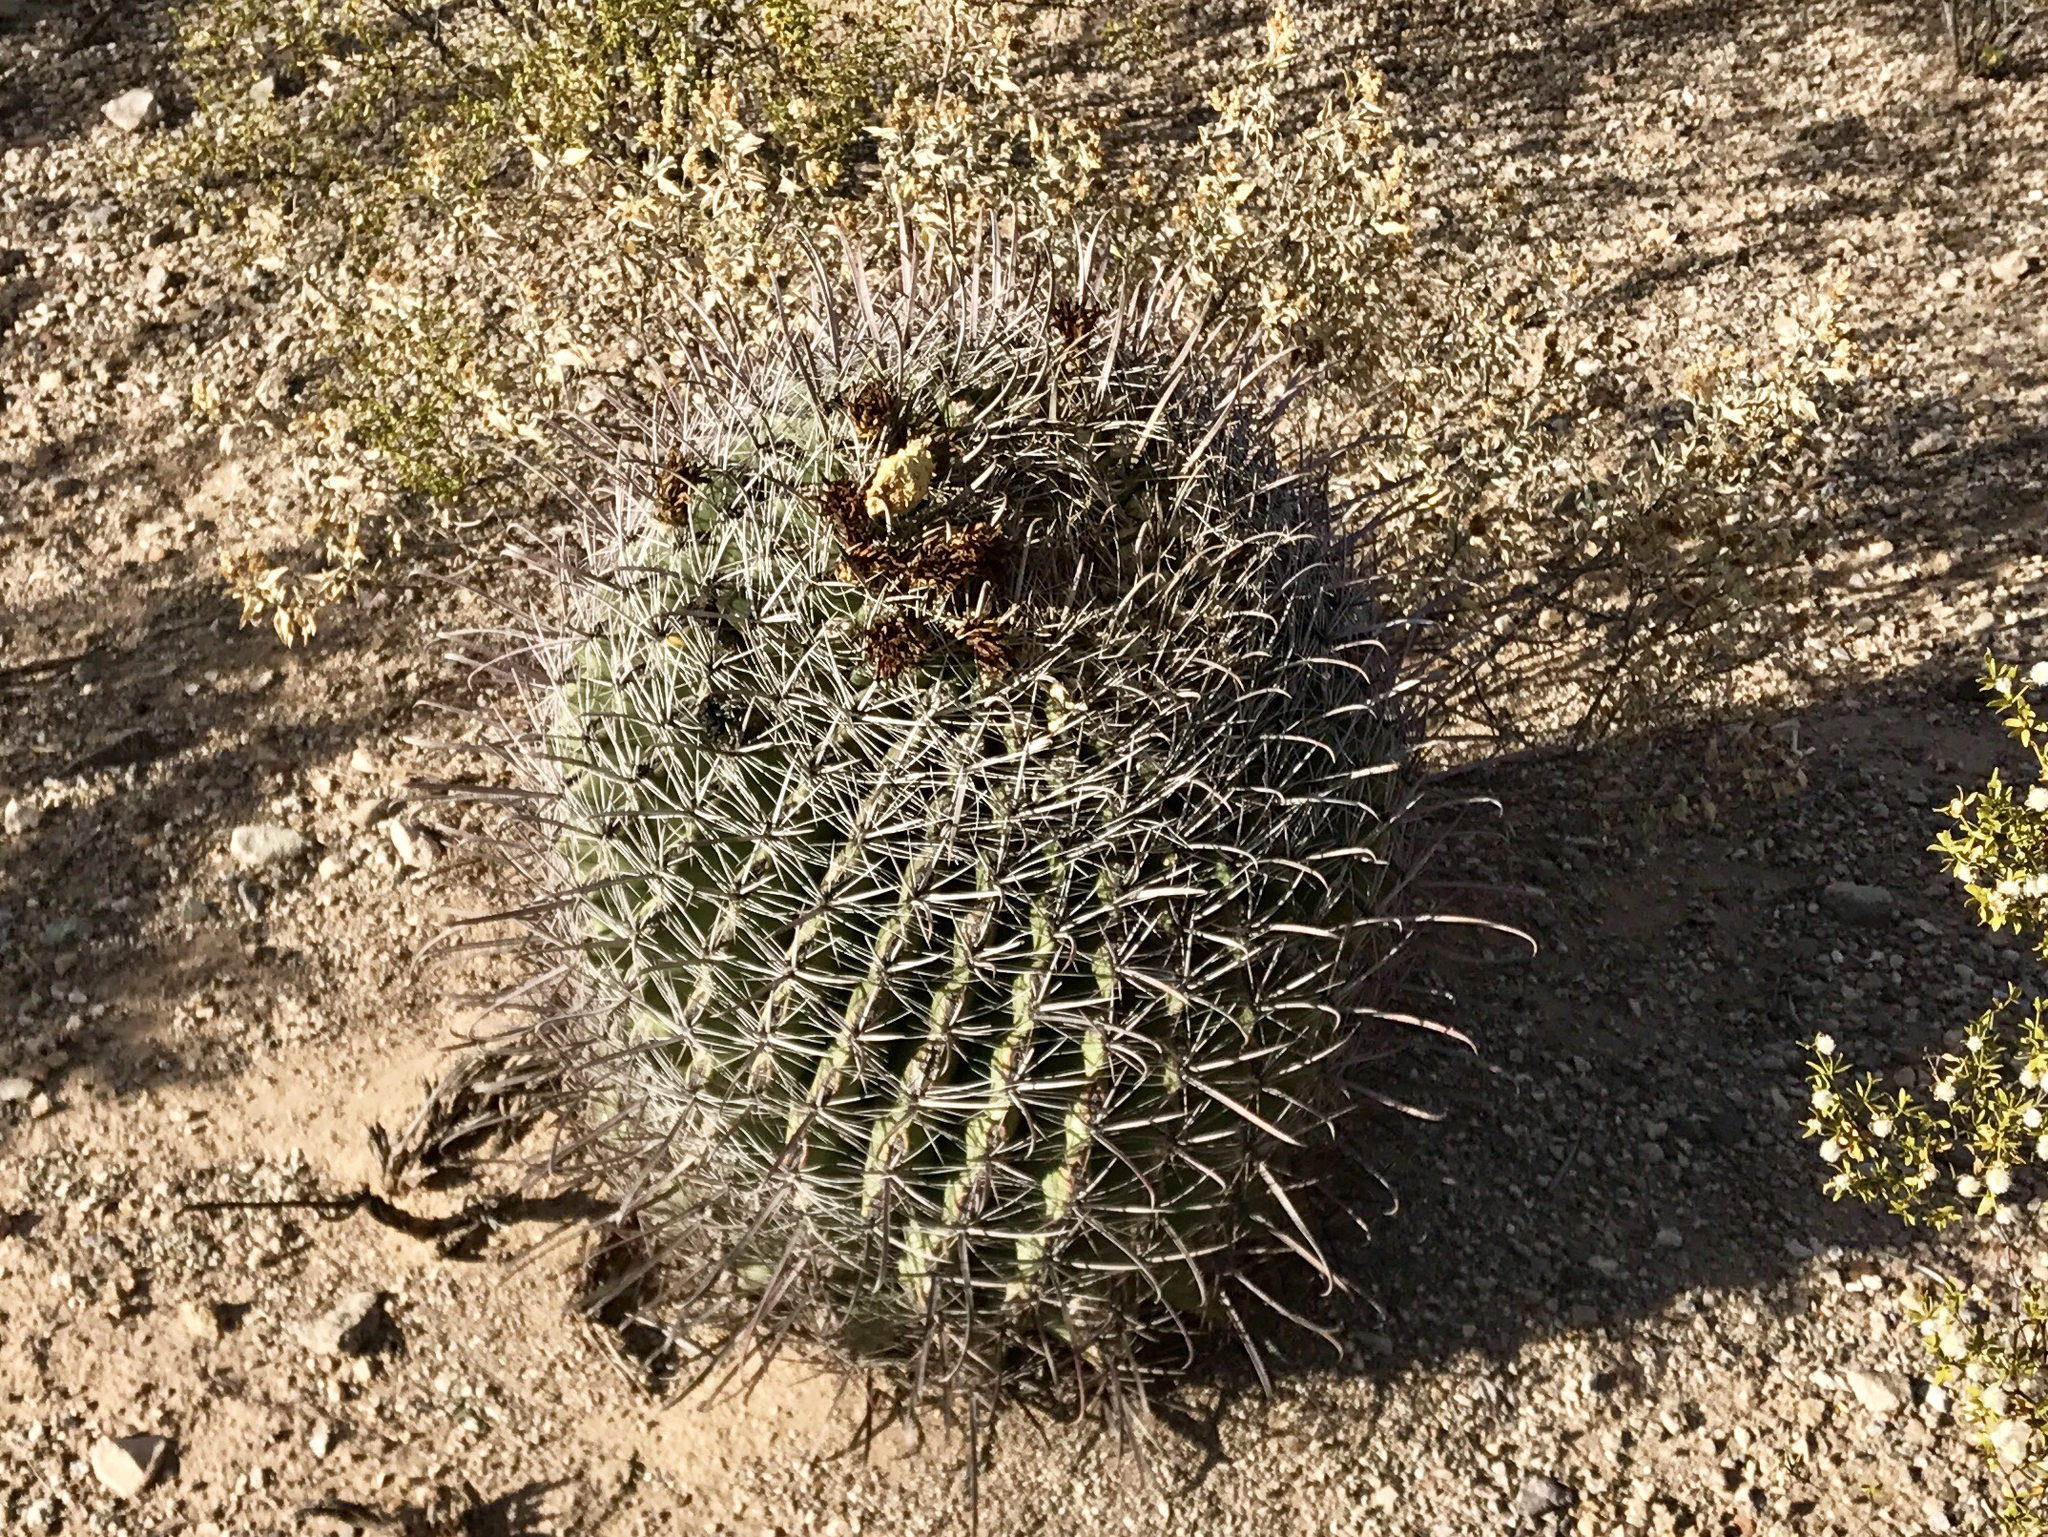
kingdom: Plantae
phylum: Tracheophyta
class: Magnoliopsida
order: Caryophyllales
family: Cactaceae
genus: Ferocactus
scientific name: Ferocactus wislizeni
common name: Candy barrel cactus
